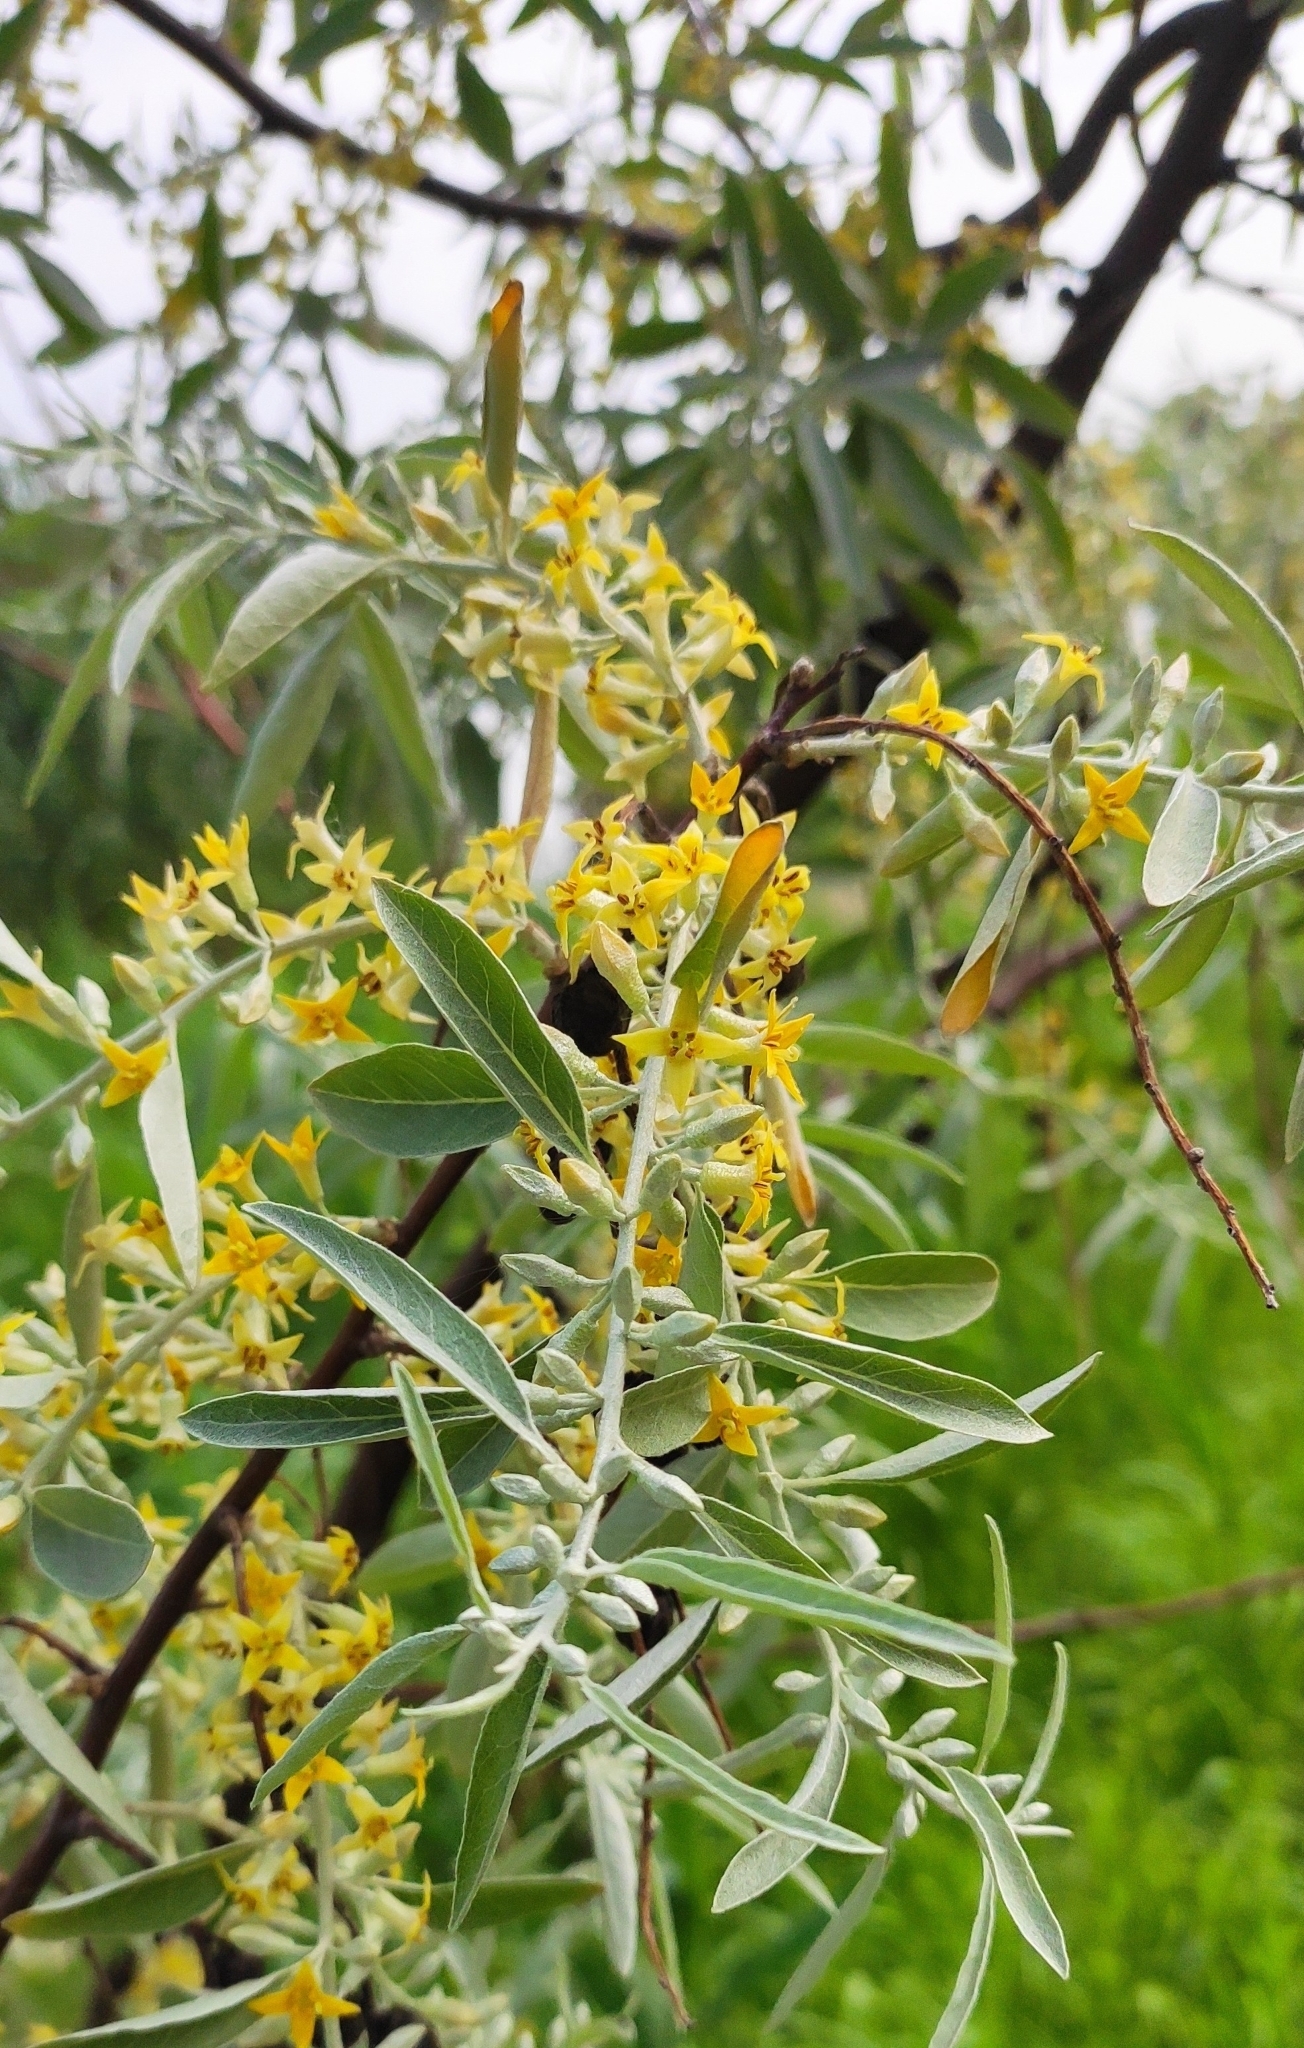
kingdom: Plantae
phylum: Tracheophyta
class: Magnoliopsida
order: Rosales
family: Elaeagnaceae
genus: Elaeagnus
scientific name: Elaeagnus angustifolia
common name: Russian olive
